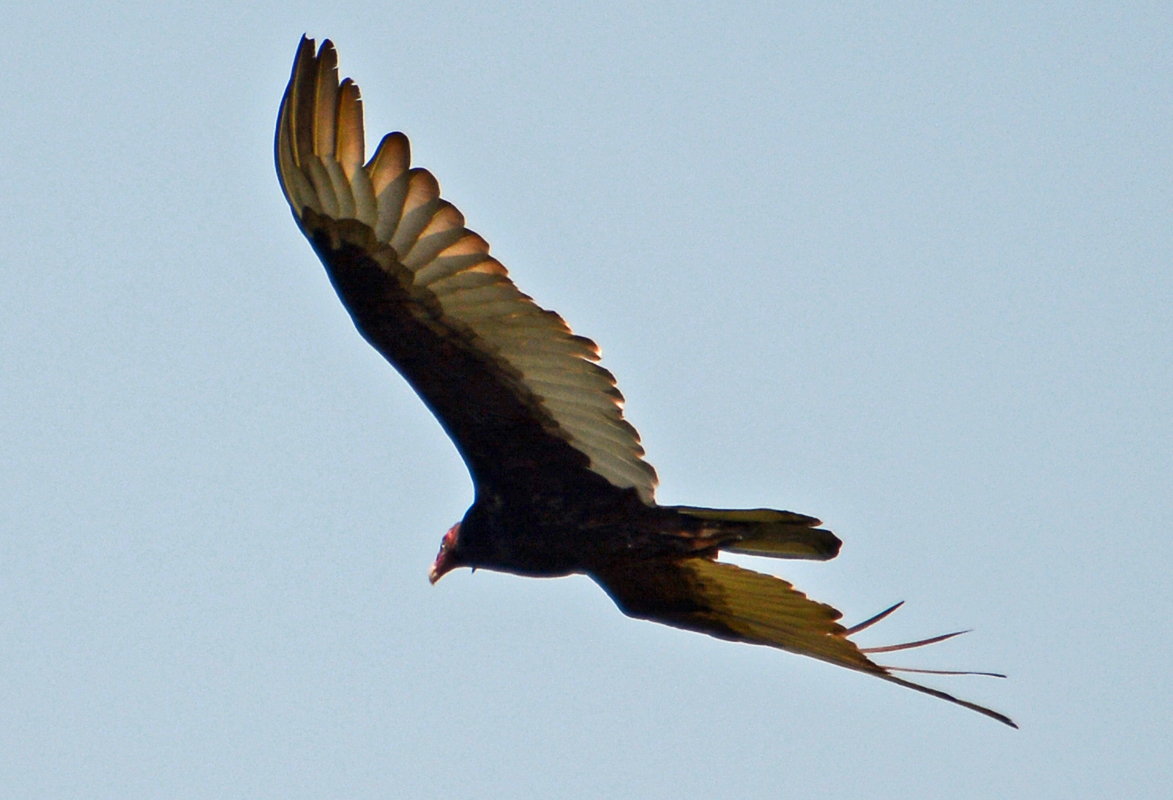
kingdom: Animalia
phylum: Chordata
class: Aves
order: Accipitriformes
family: Cathartidae
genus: Cathartes
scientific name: Cathartes aura
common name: Turkey vulture
